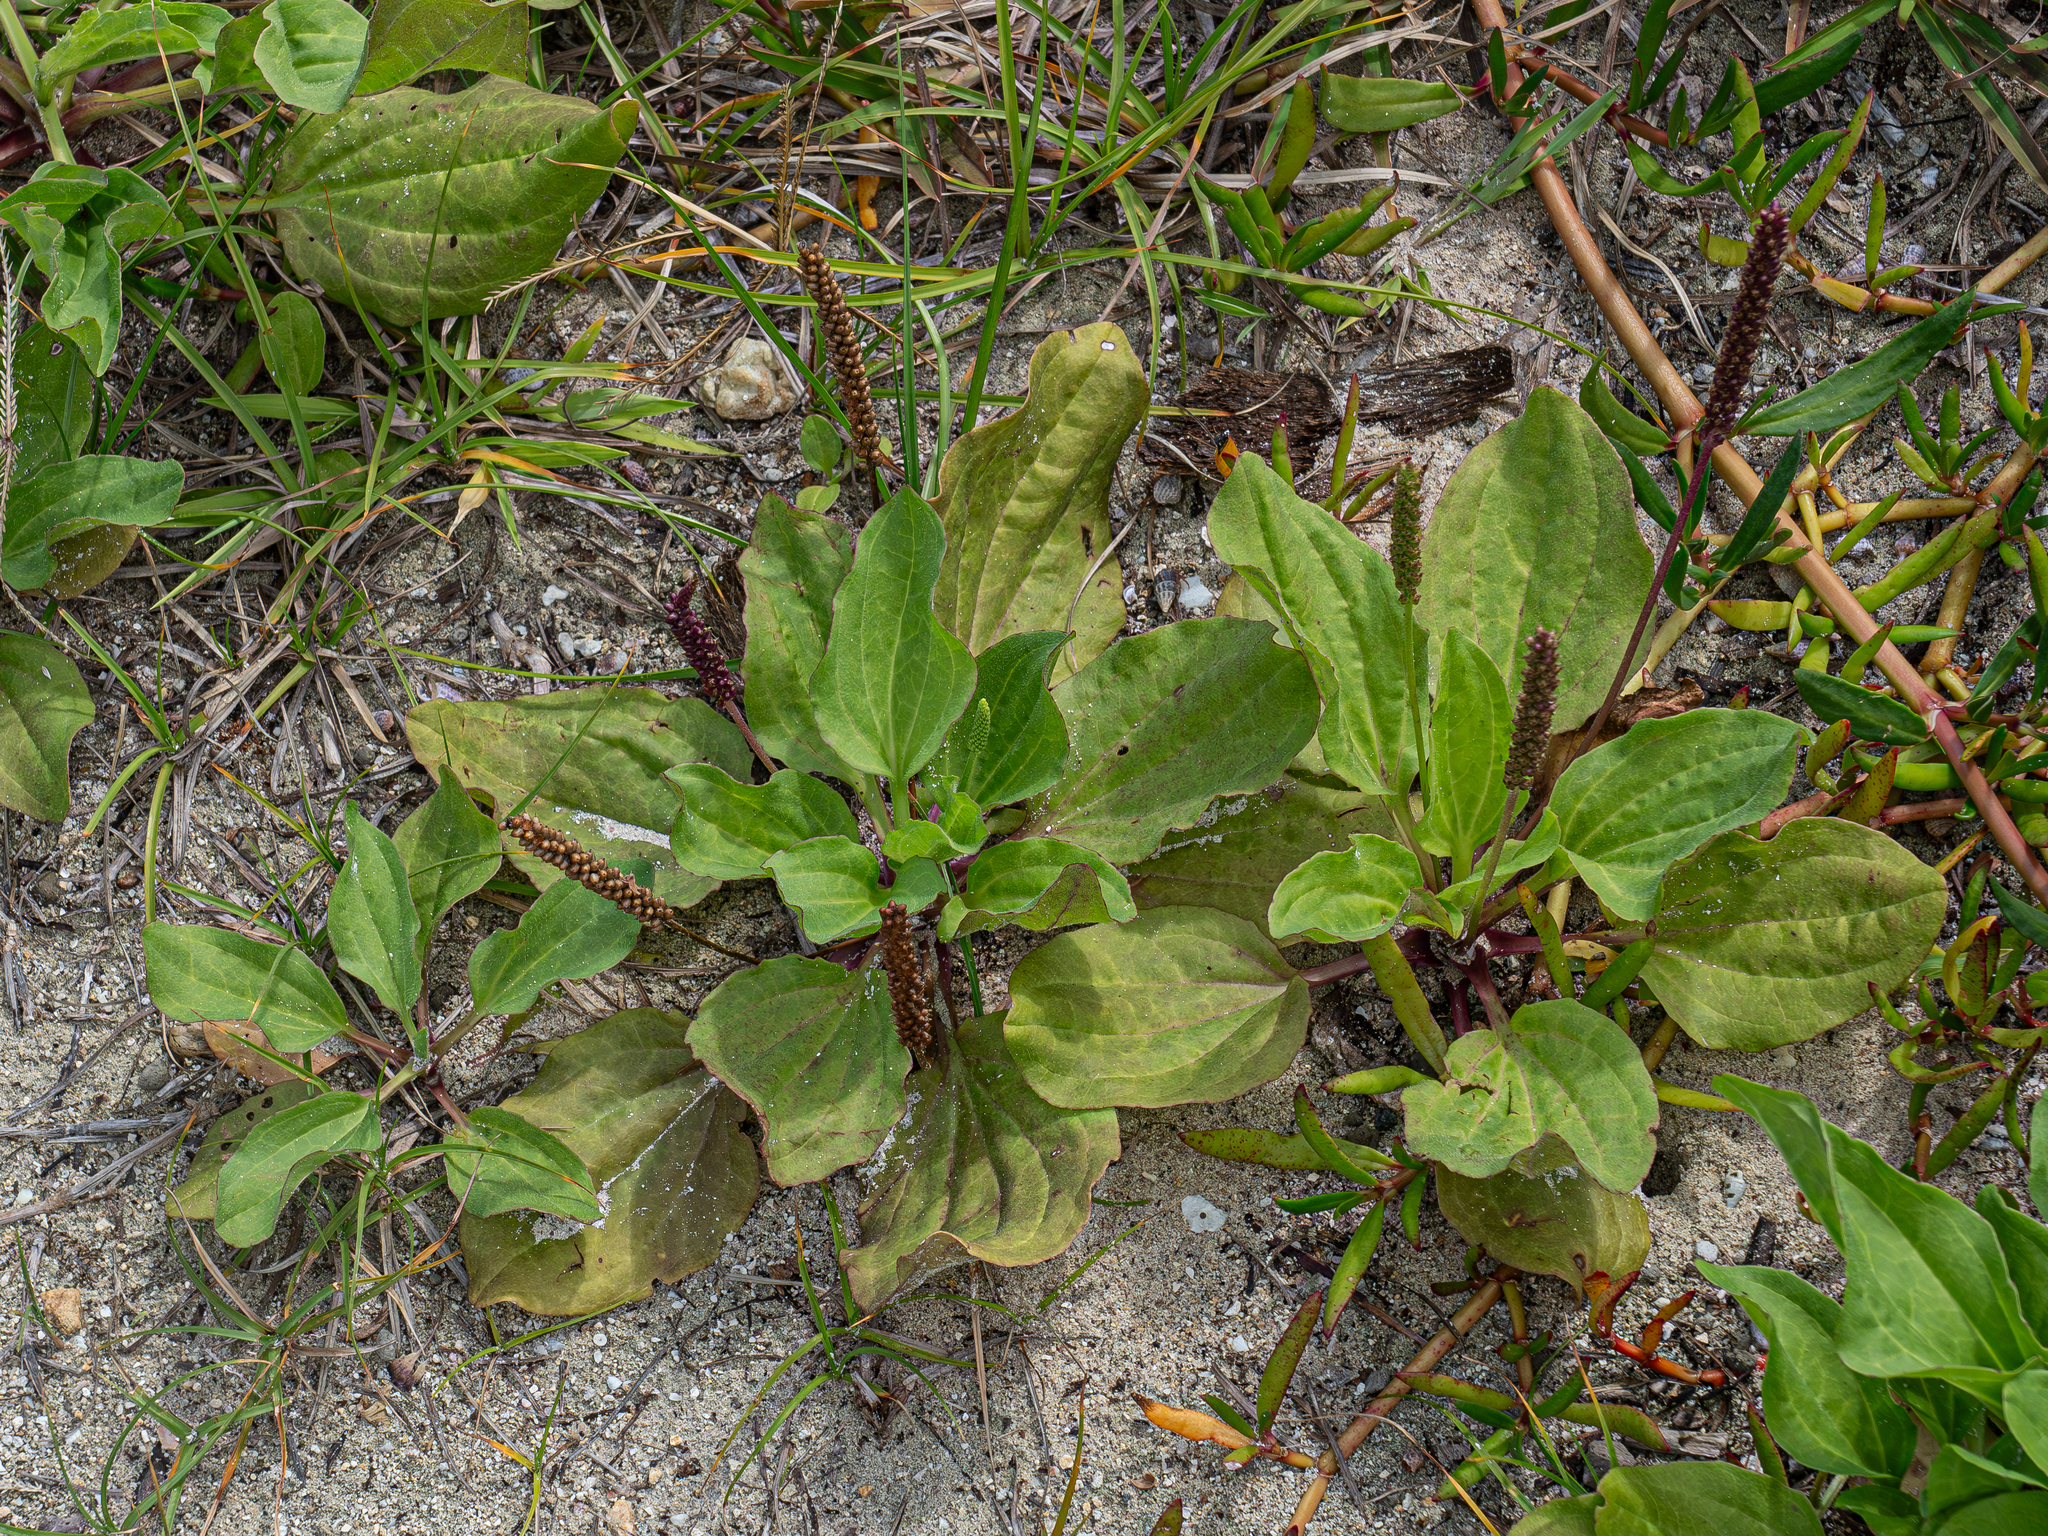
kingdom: Plantae
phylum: Tracheophyta
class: Magnoliopsida
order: Lamiales
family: Plantaginaceae
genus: Plantago
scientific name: Plantago major
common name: Common plantain
